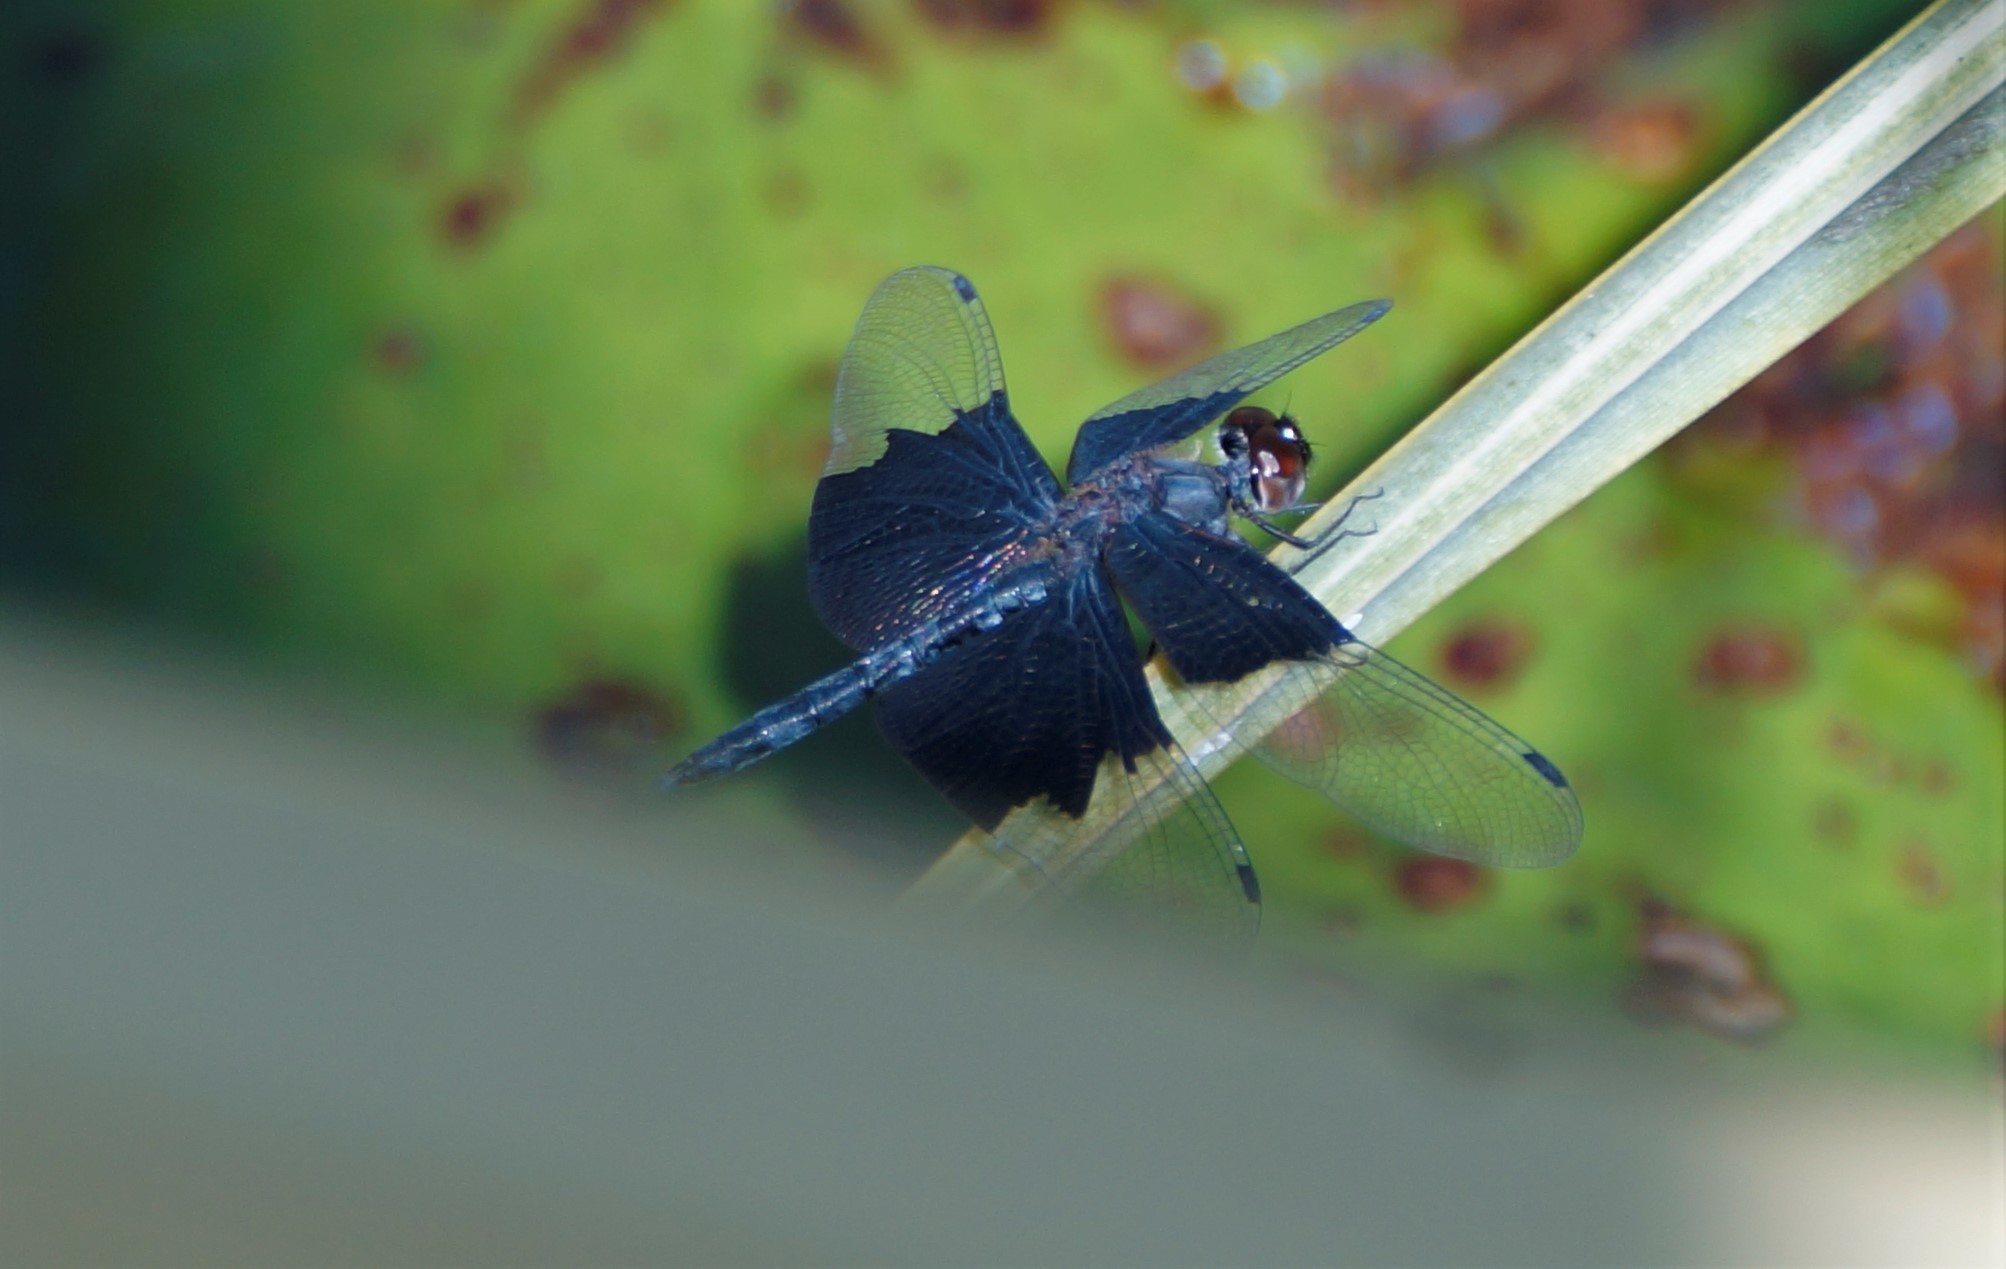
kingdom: Animalia
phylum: Arthropoda
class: Insecta
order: Odonata
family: Libellulidae
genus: Rhyothemis
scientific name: Rhyothemis braganza
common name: Iridescent flutterer
